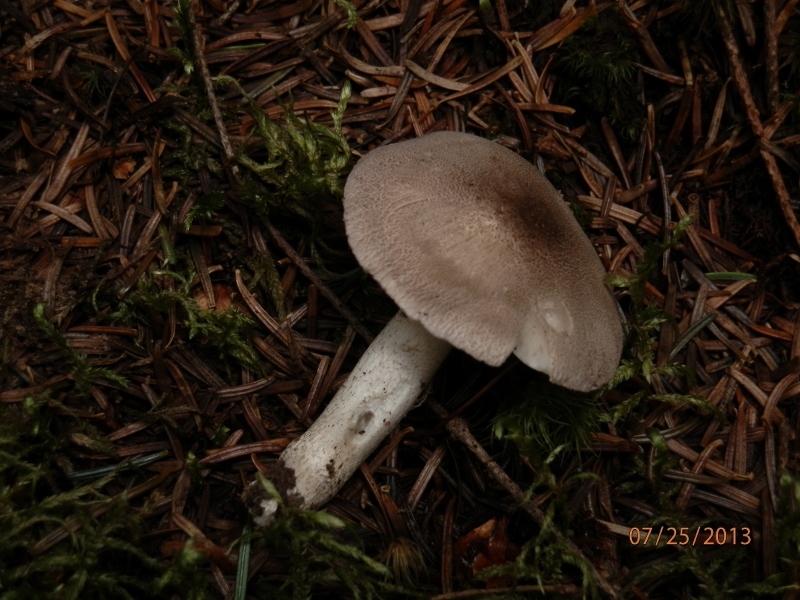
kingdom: Fungi
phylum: Basidiomycota
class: Agaricomycetes
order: Agaricales
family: Tricholomataceae
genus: Tricholoma
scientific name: Tricholoma terreum
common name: Grey knight
